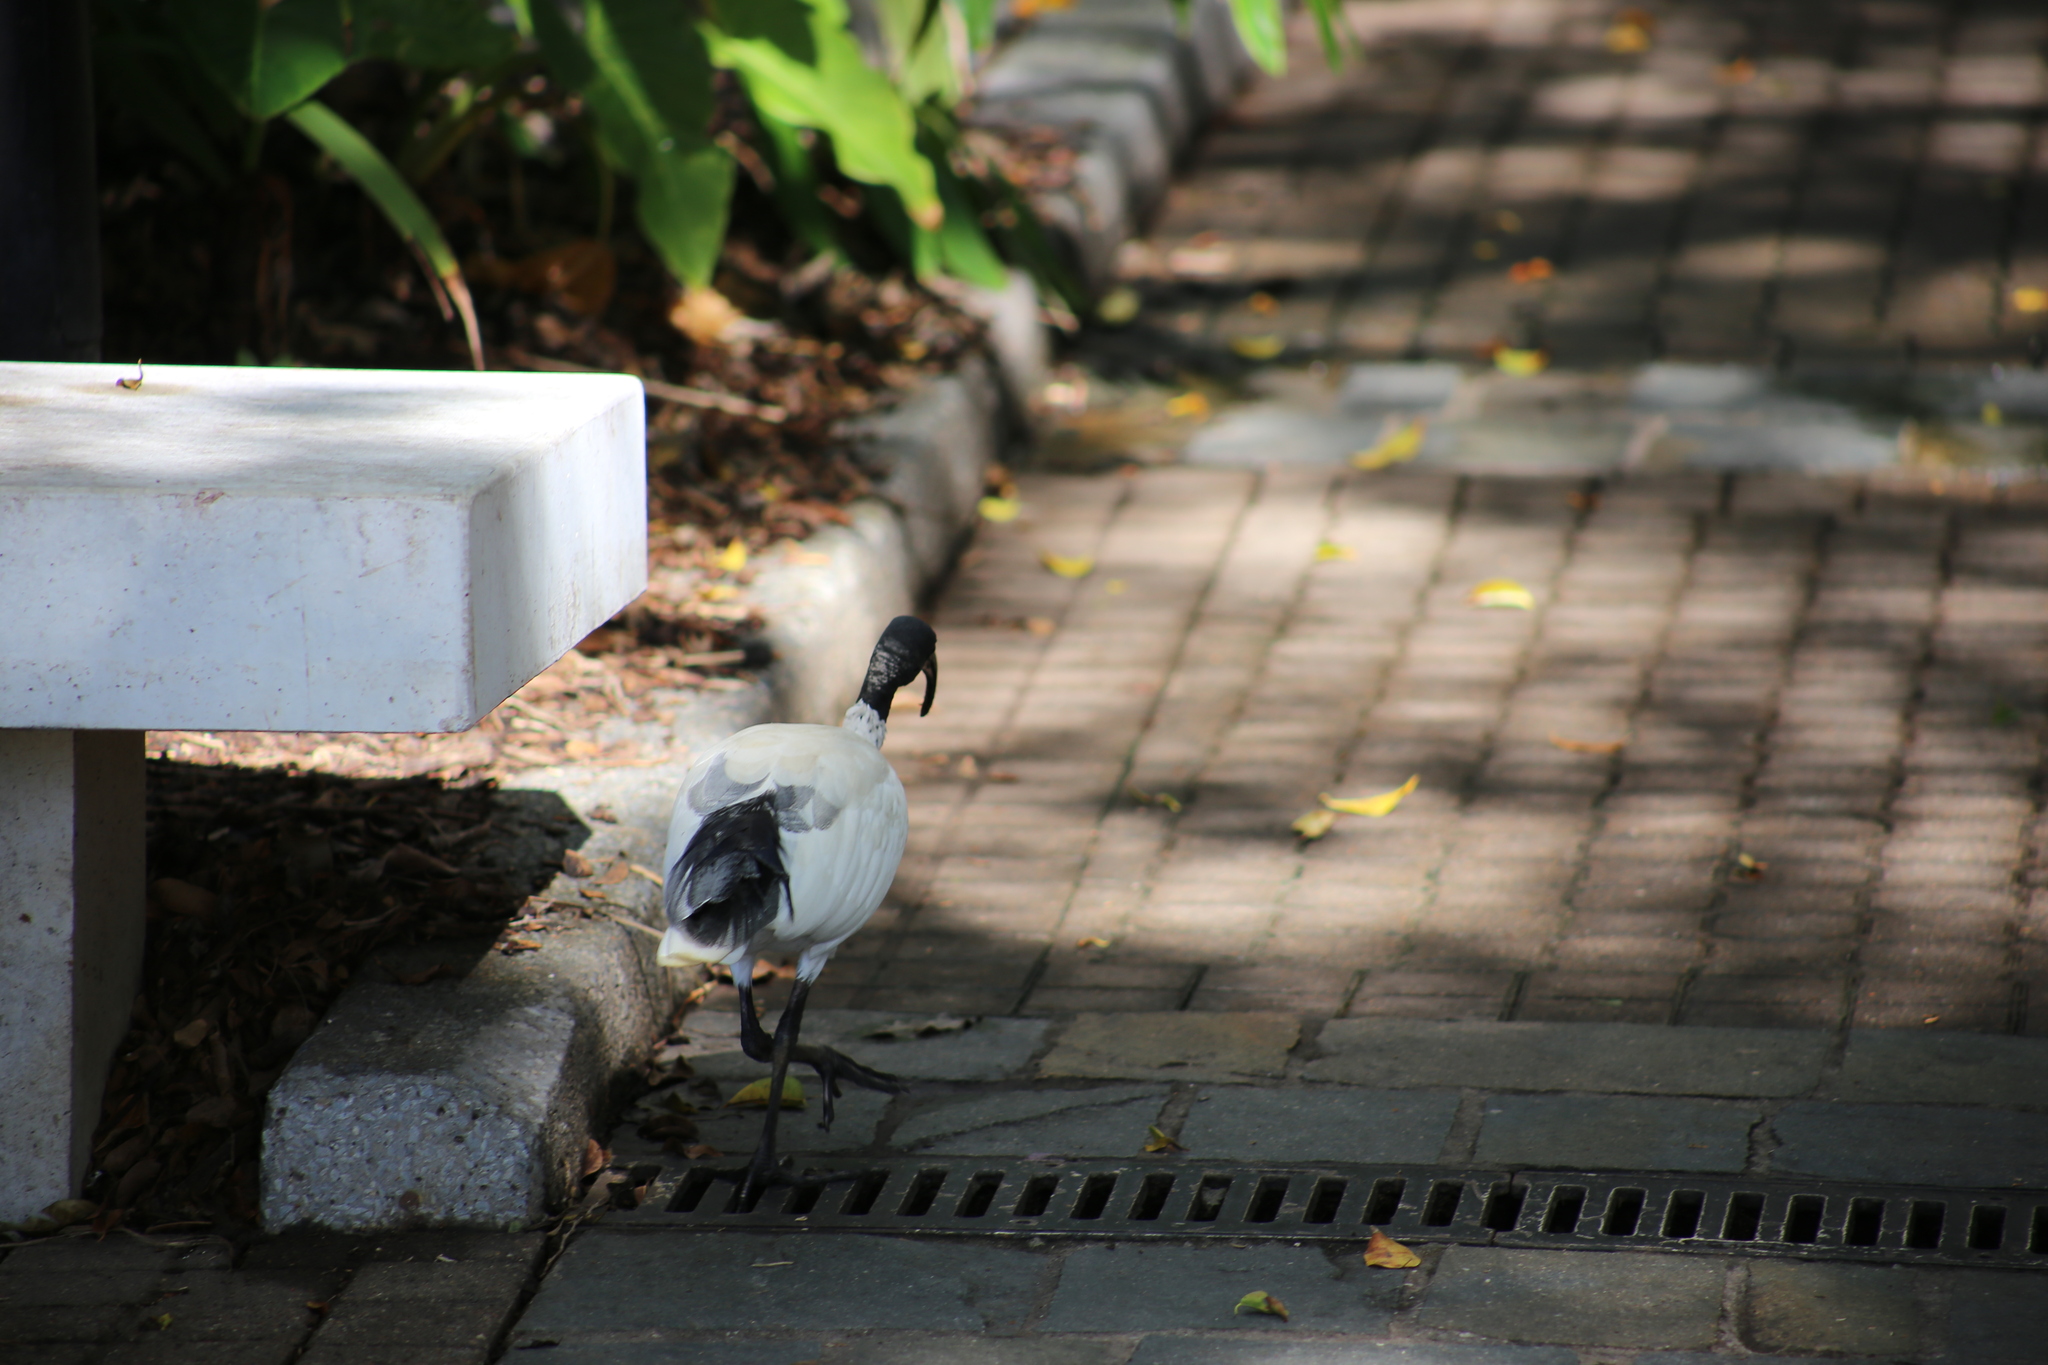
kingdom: Animalia
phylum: Chordata
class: Aves
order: Pelecaniformes
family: Threskiornithidae
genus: Threskiornis
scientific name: Threskiornis molucca
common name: Australian white ibis
